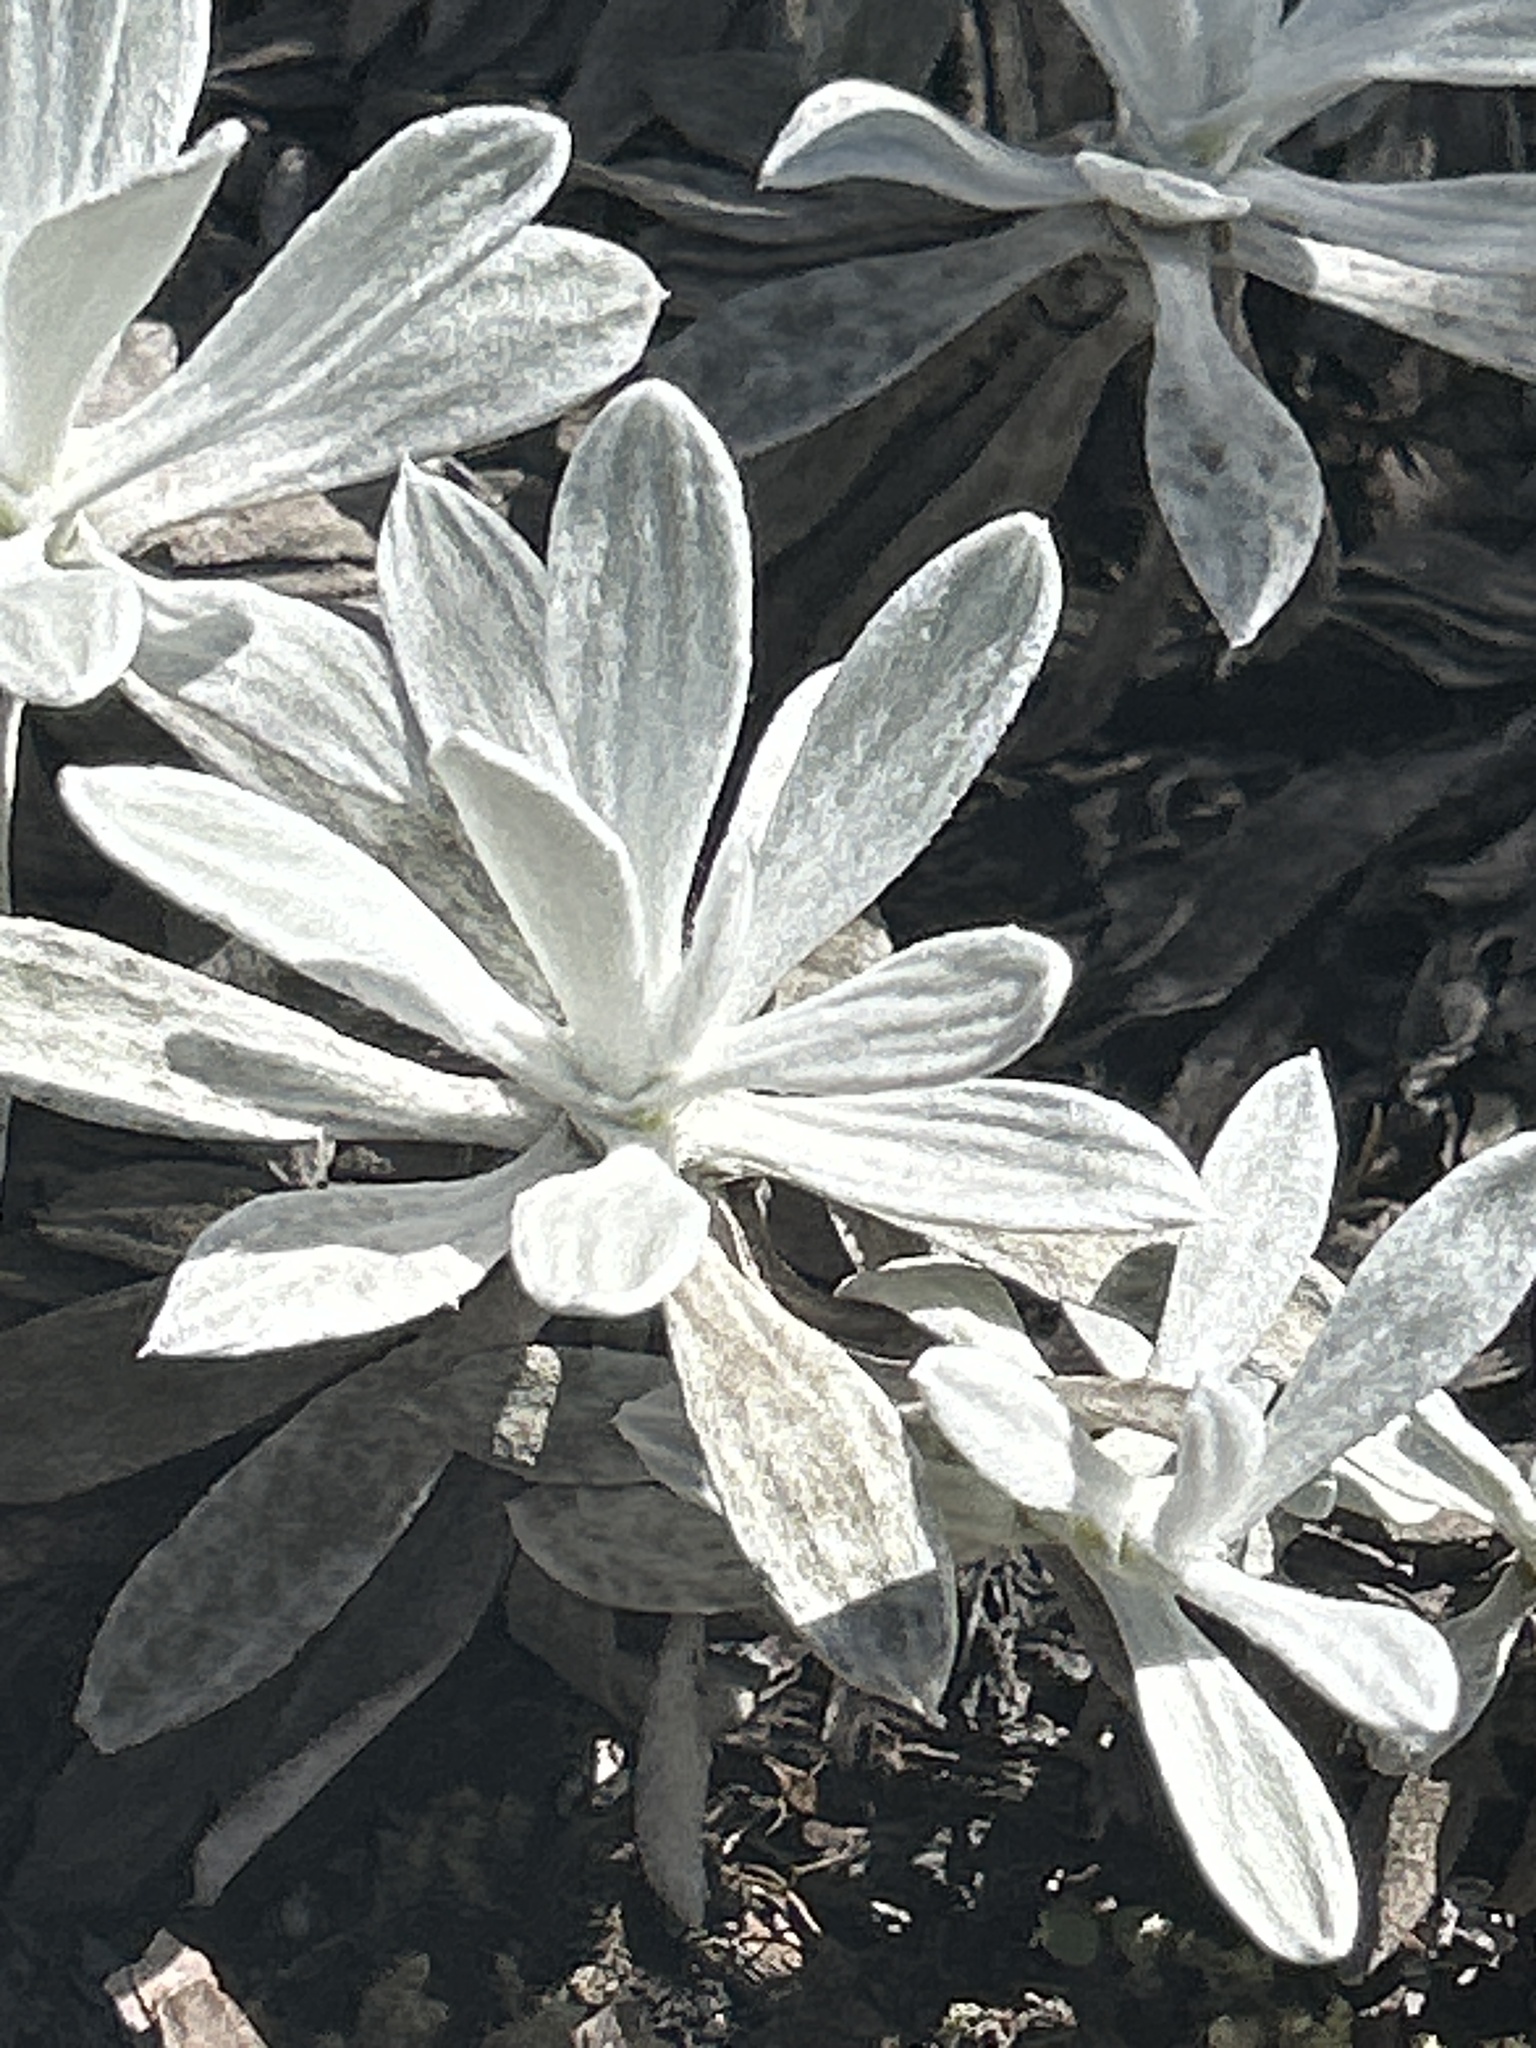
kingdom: Plantae
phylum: Tracheophyta
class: Magnoliopsida
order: Asterales
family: Asteraceae
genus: Celmisia
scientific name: Celmisia allanii
